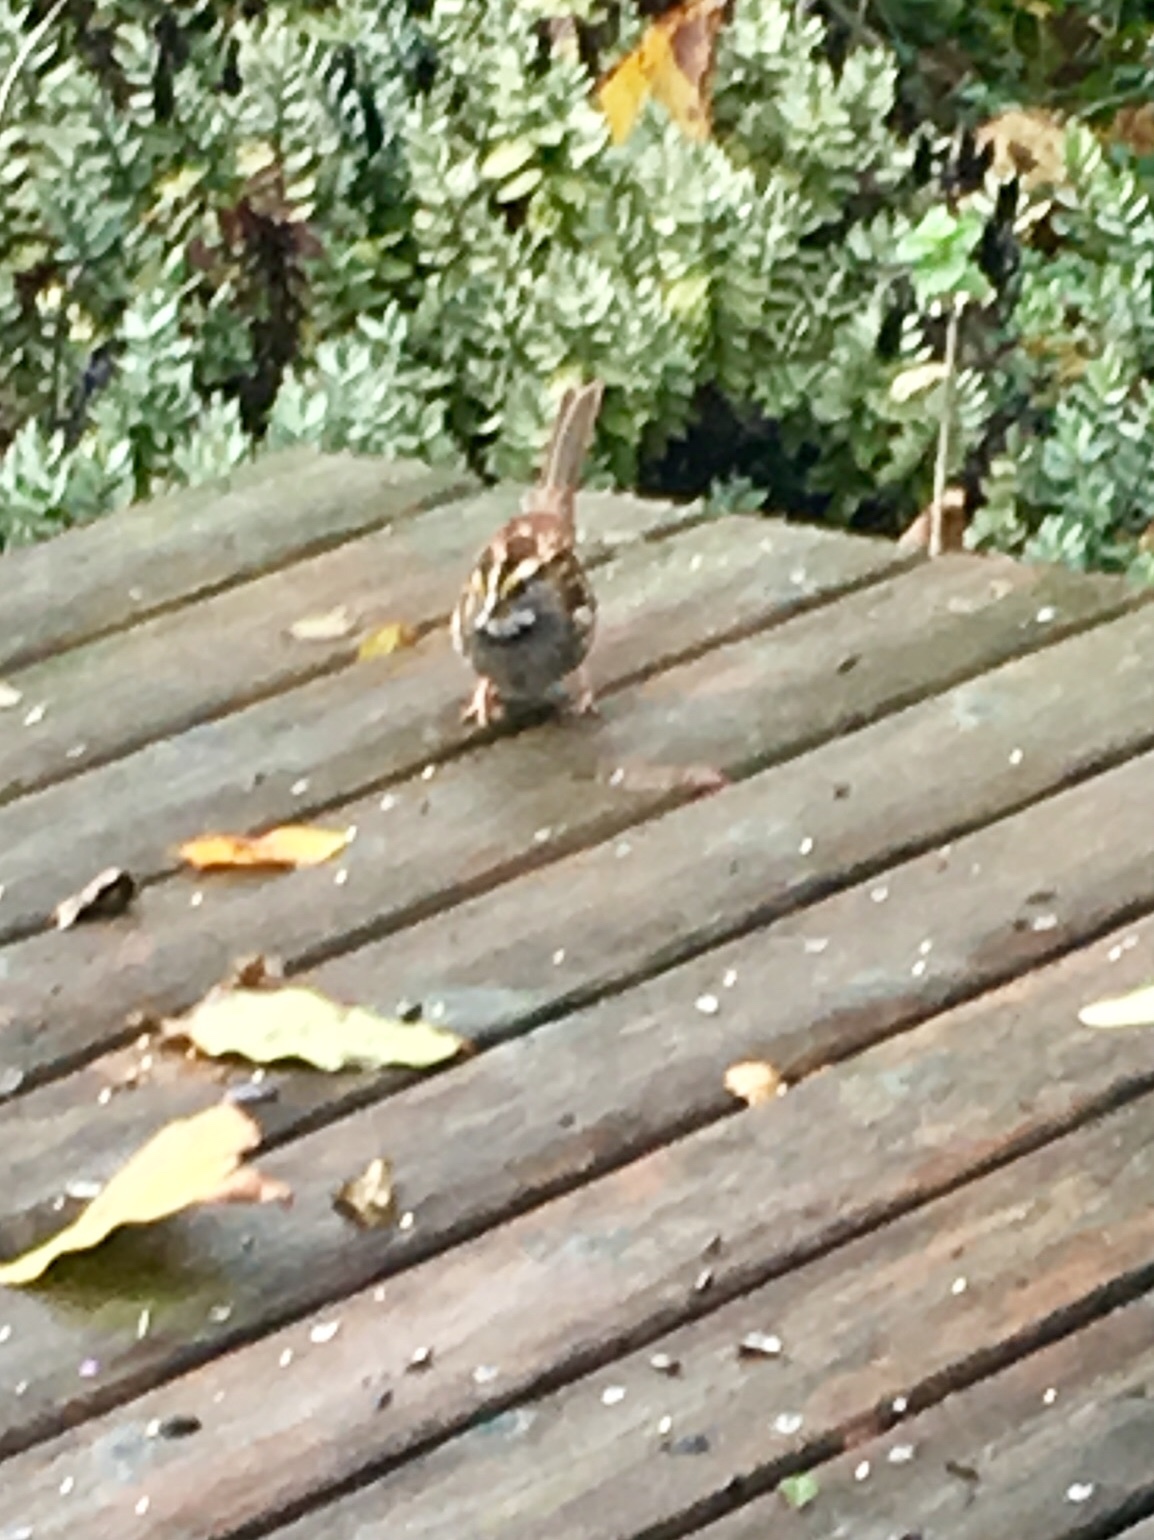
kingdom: Animalia
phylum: Chordata
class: Aves
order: Passeriformes
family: Passerellidae
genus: Zonotrichia
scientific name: Zonotrichia albicollis
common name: White-throated sparrow
